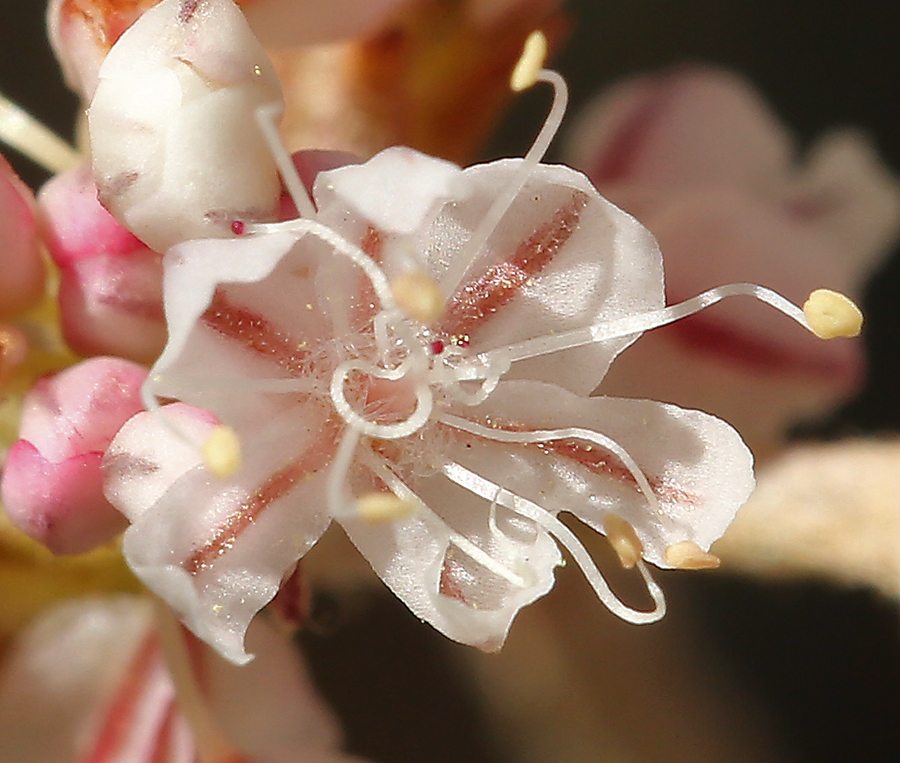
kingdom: Plantae
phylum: Tracheophyta
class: Magnoliopsida
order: Caryophyllales
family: Polygonaceae
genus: Eriogonum
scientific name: Eriogonum strictum
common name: Blue mountain buckwheat
